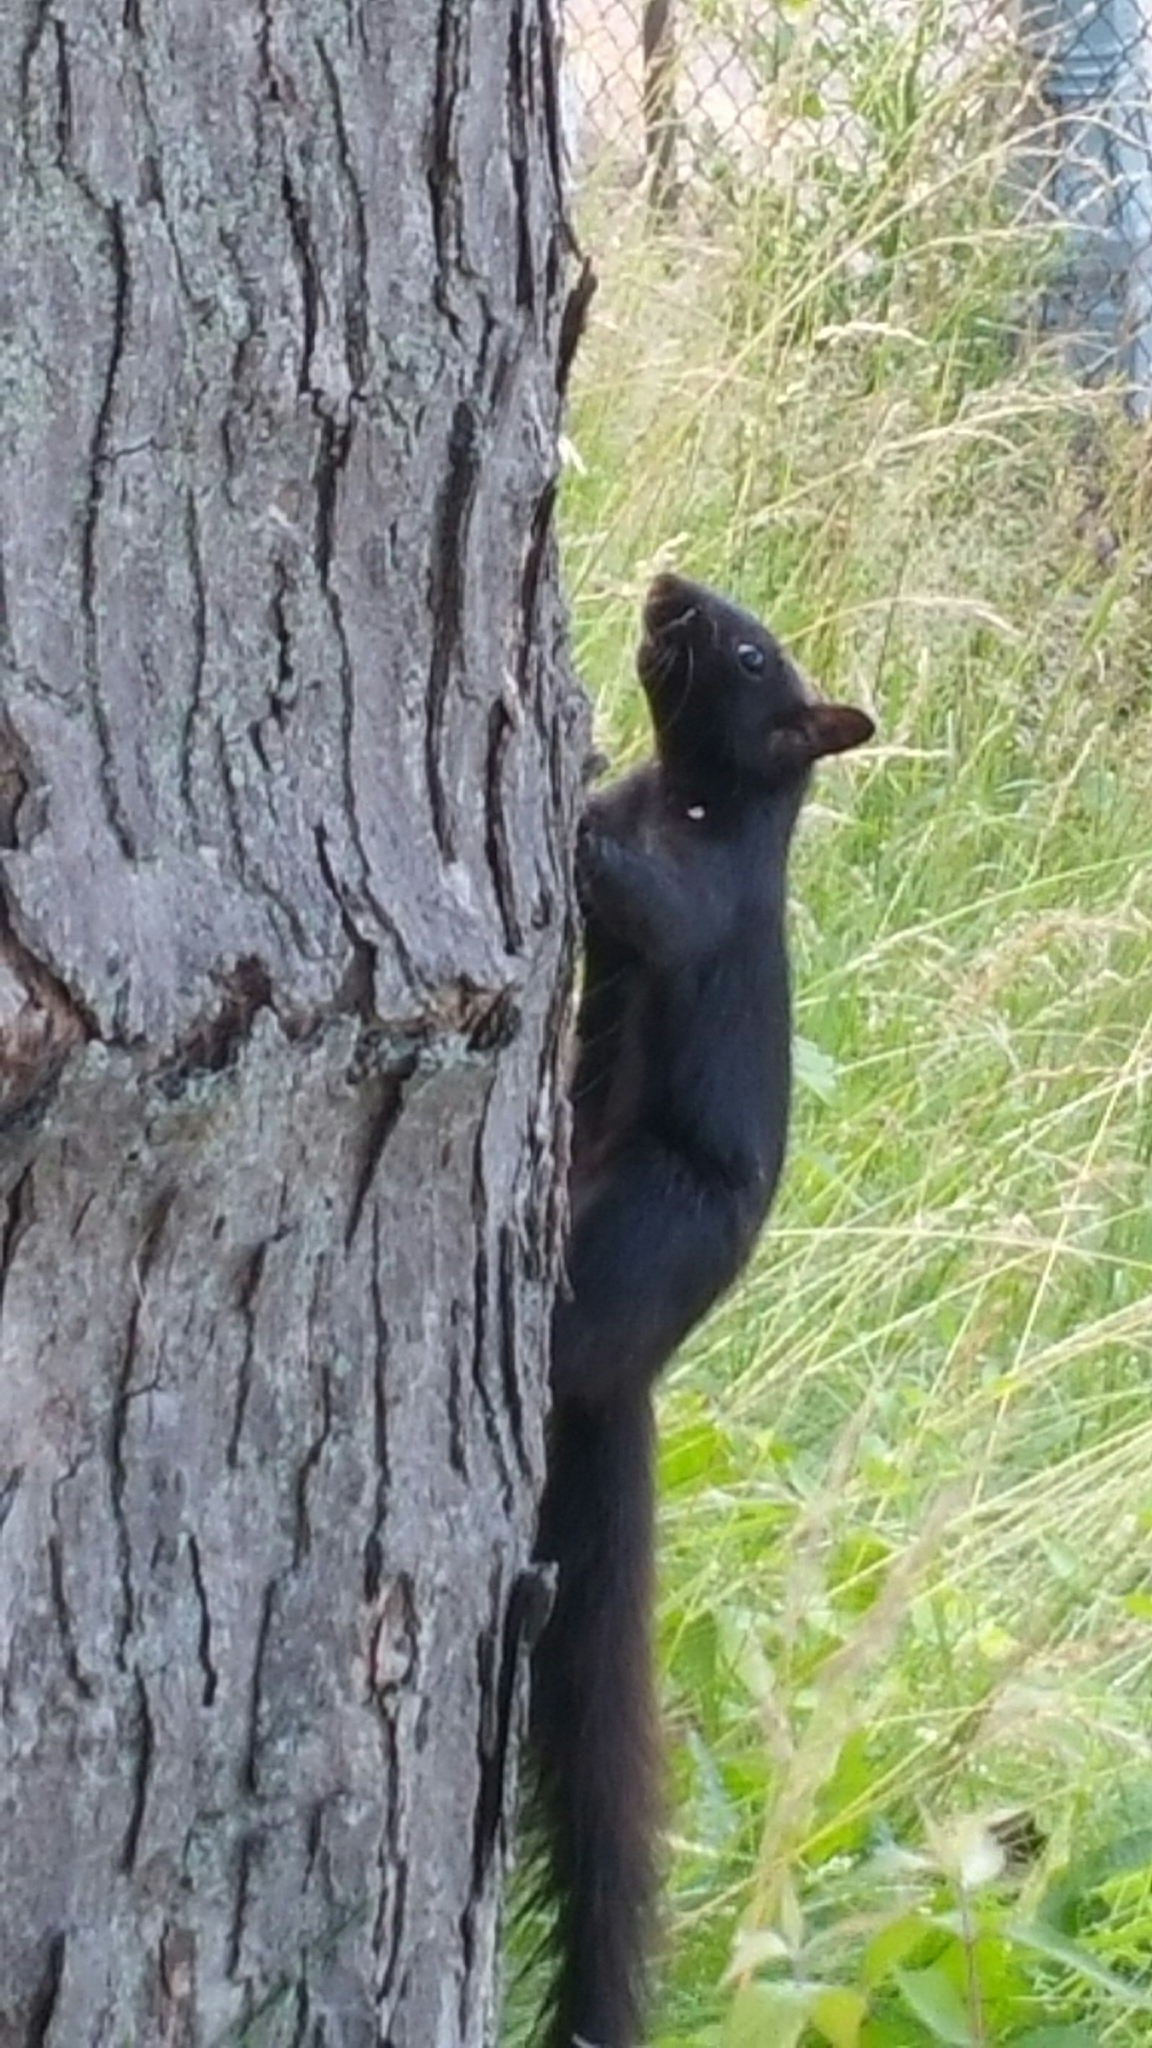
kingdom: Animalia
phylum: Chordata
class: Mammalia
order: Rodentia
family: Sciuridae
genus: Sciurus
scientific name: Sciurus carolinensis
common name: Eastern gray squirrel
